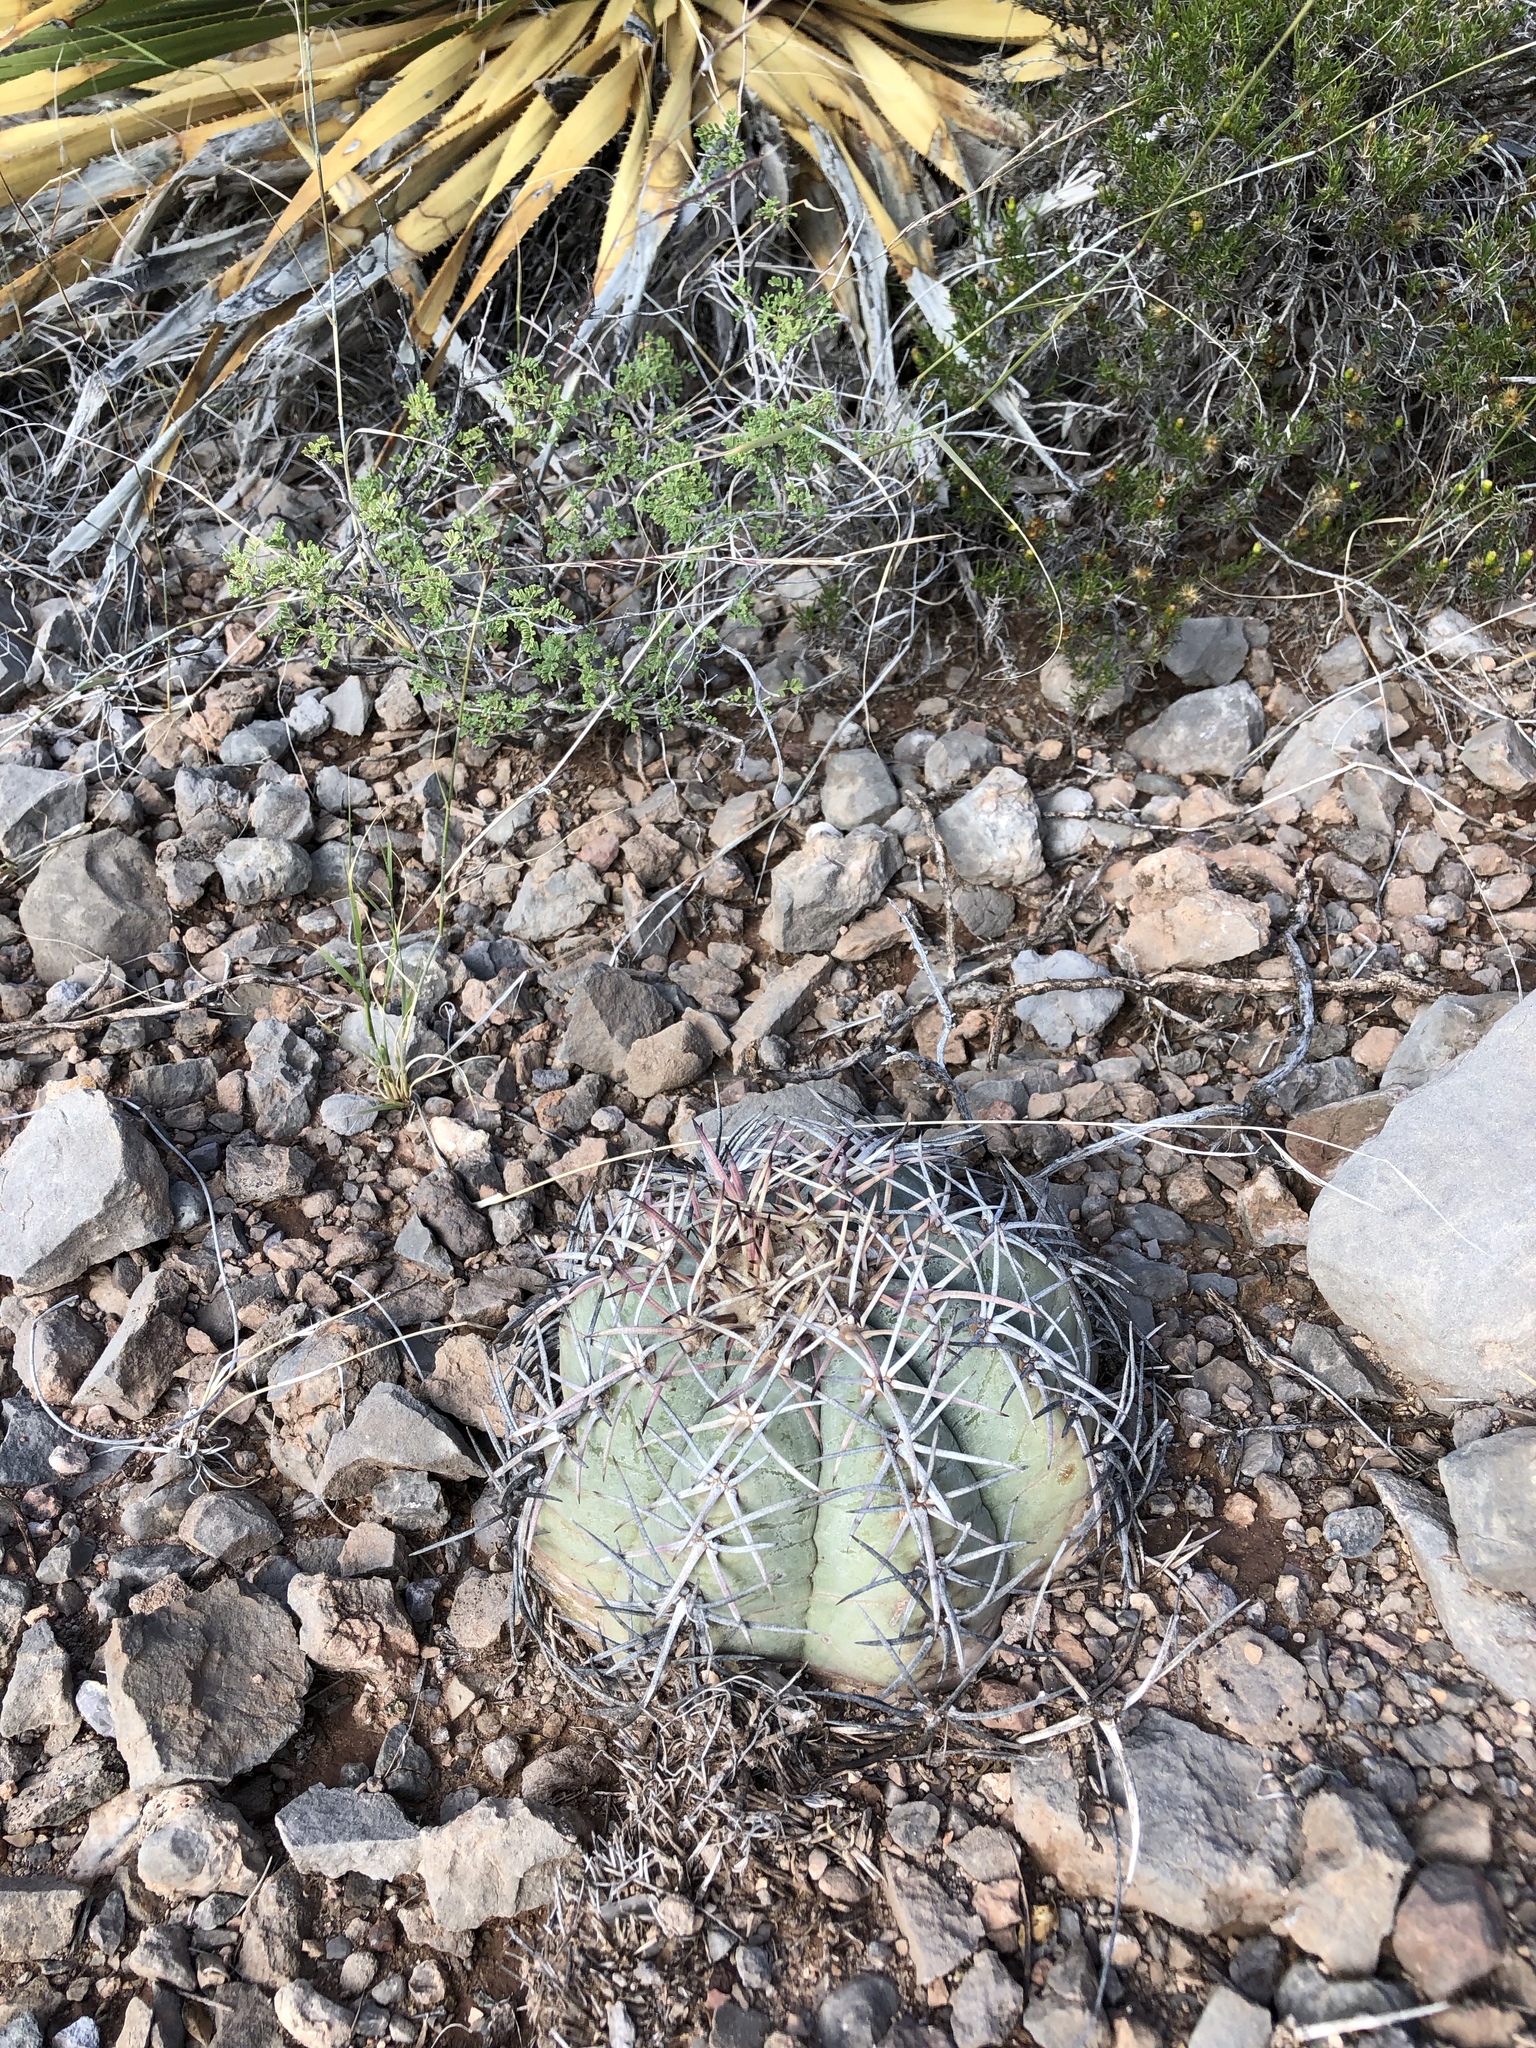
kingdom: Plantae
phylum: Tracheophyta
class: Magnoliopsida
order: Caryophyllales
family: Cactaceae
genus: Echinocactus
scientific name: Echinocactus horizonthalonius
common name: Devilshead
